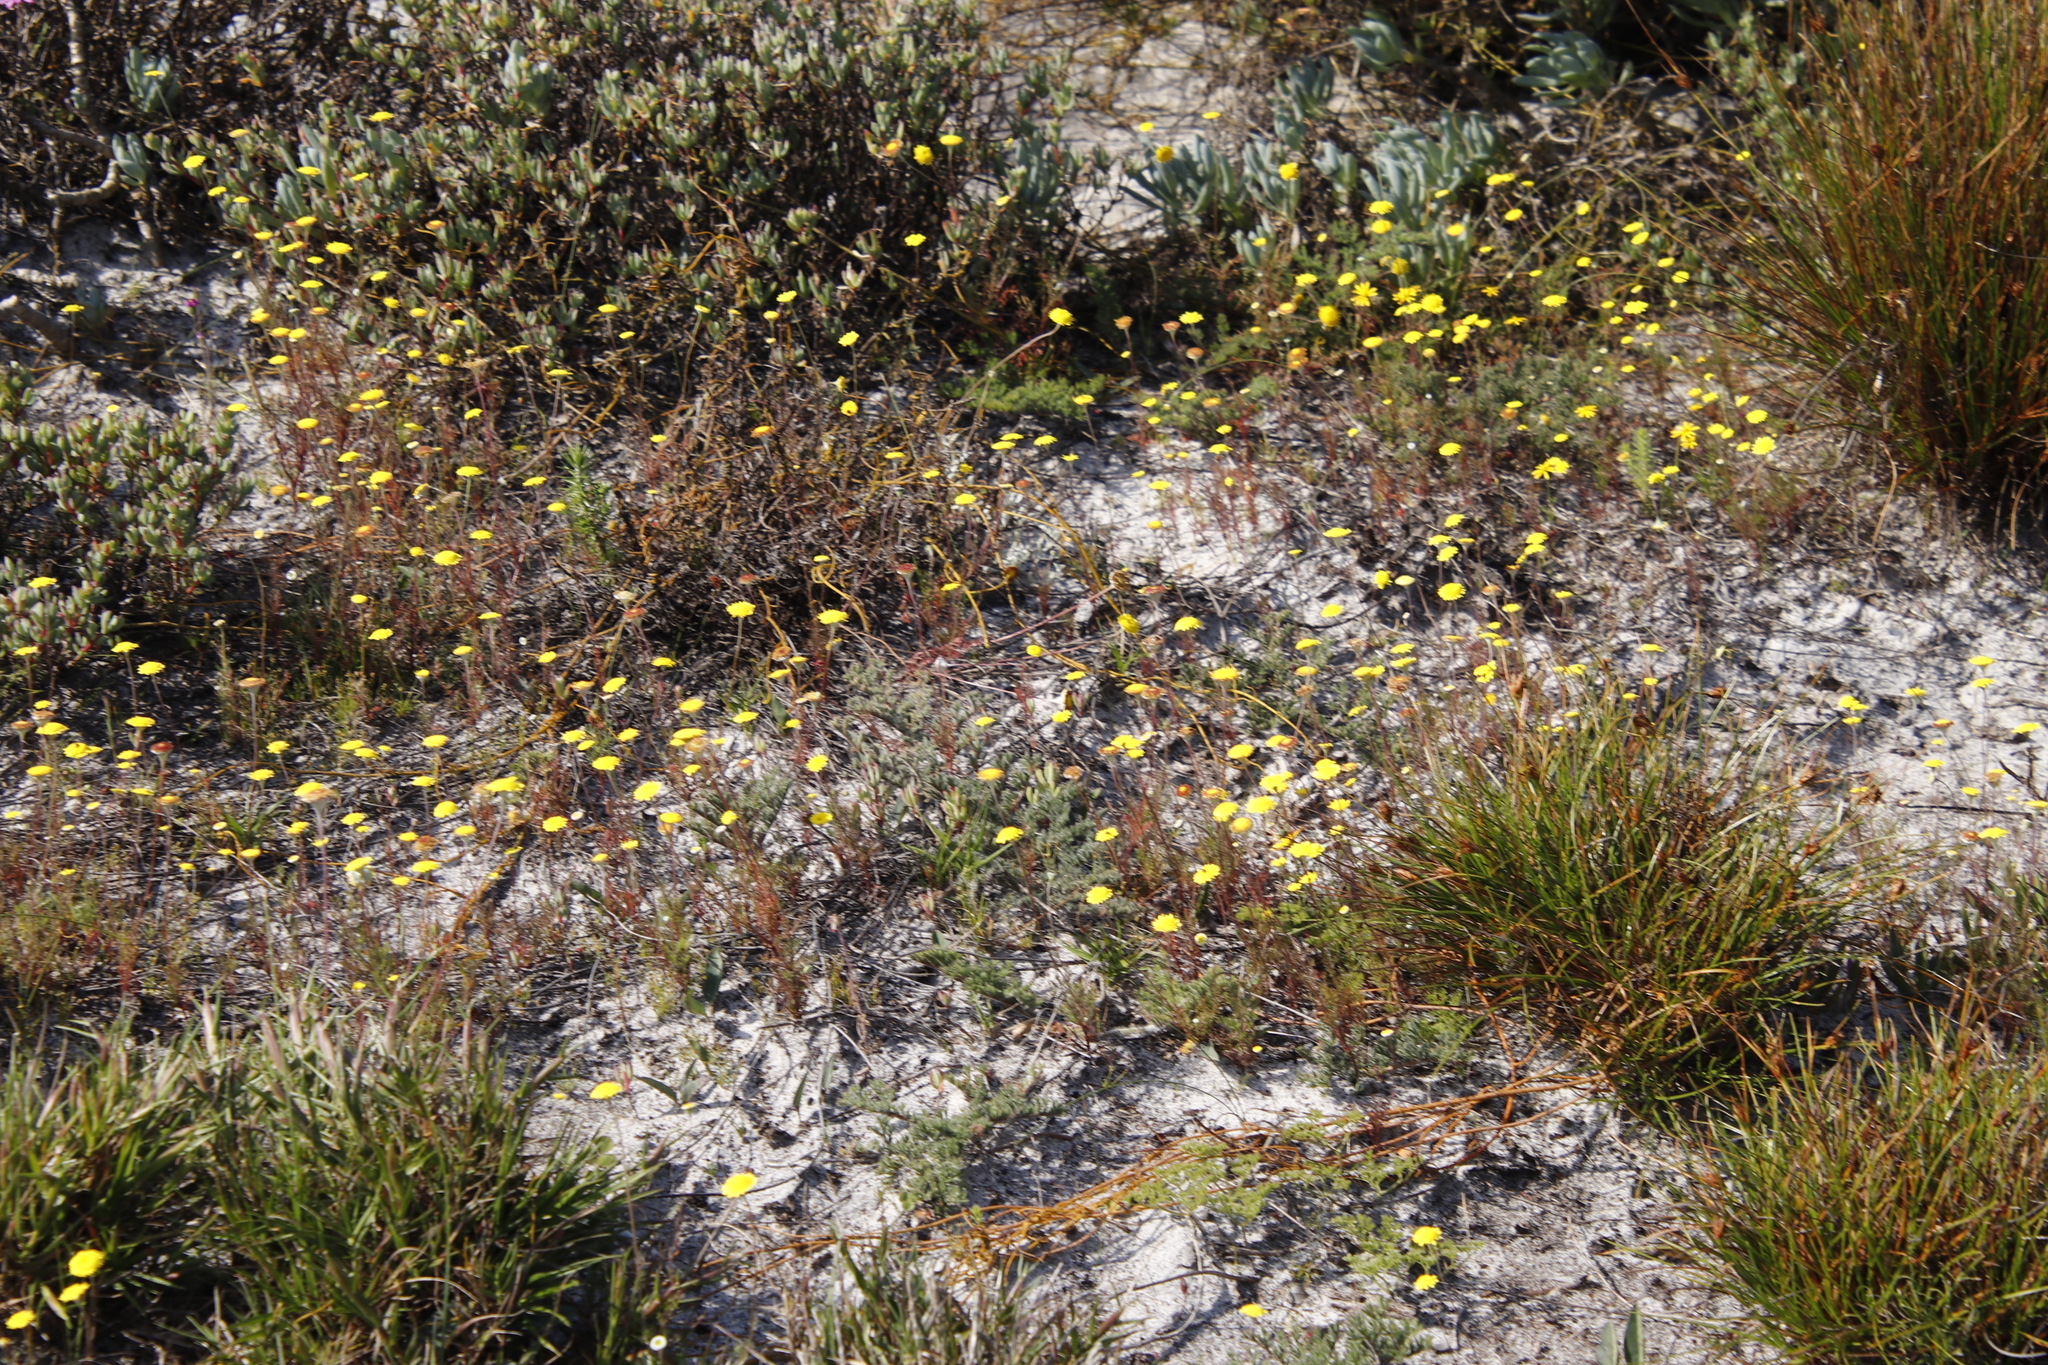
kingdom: Plantae
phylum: Tracheophyta
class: Magnoliopsida
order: Asterales
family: Asteraceae
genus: Cotula
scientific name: Cotula pruinosa
